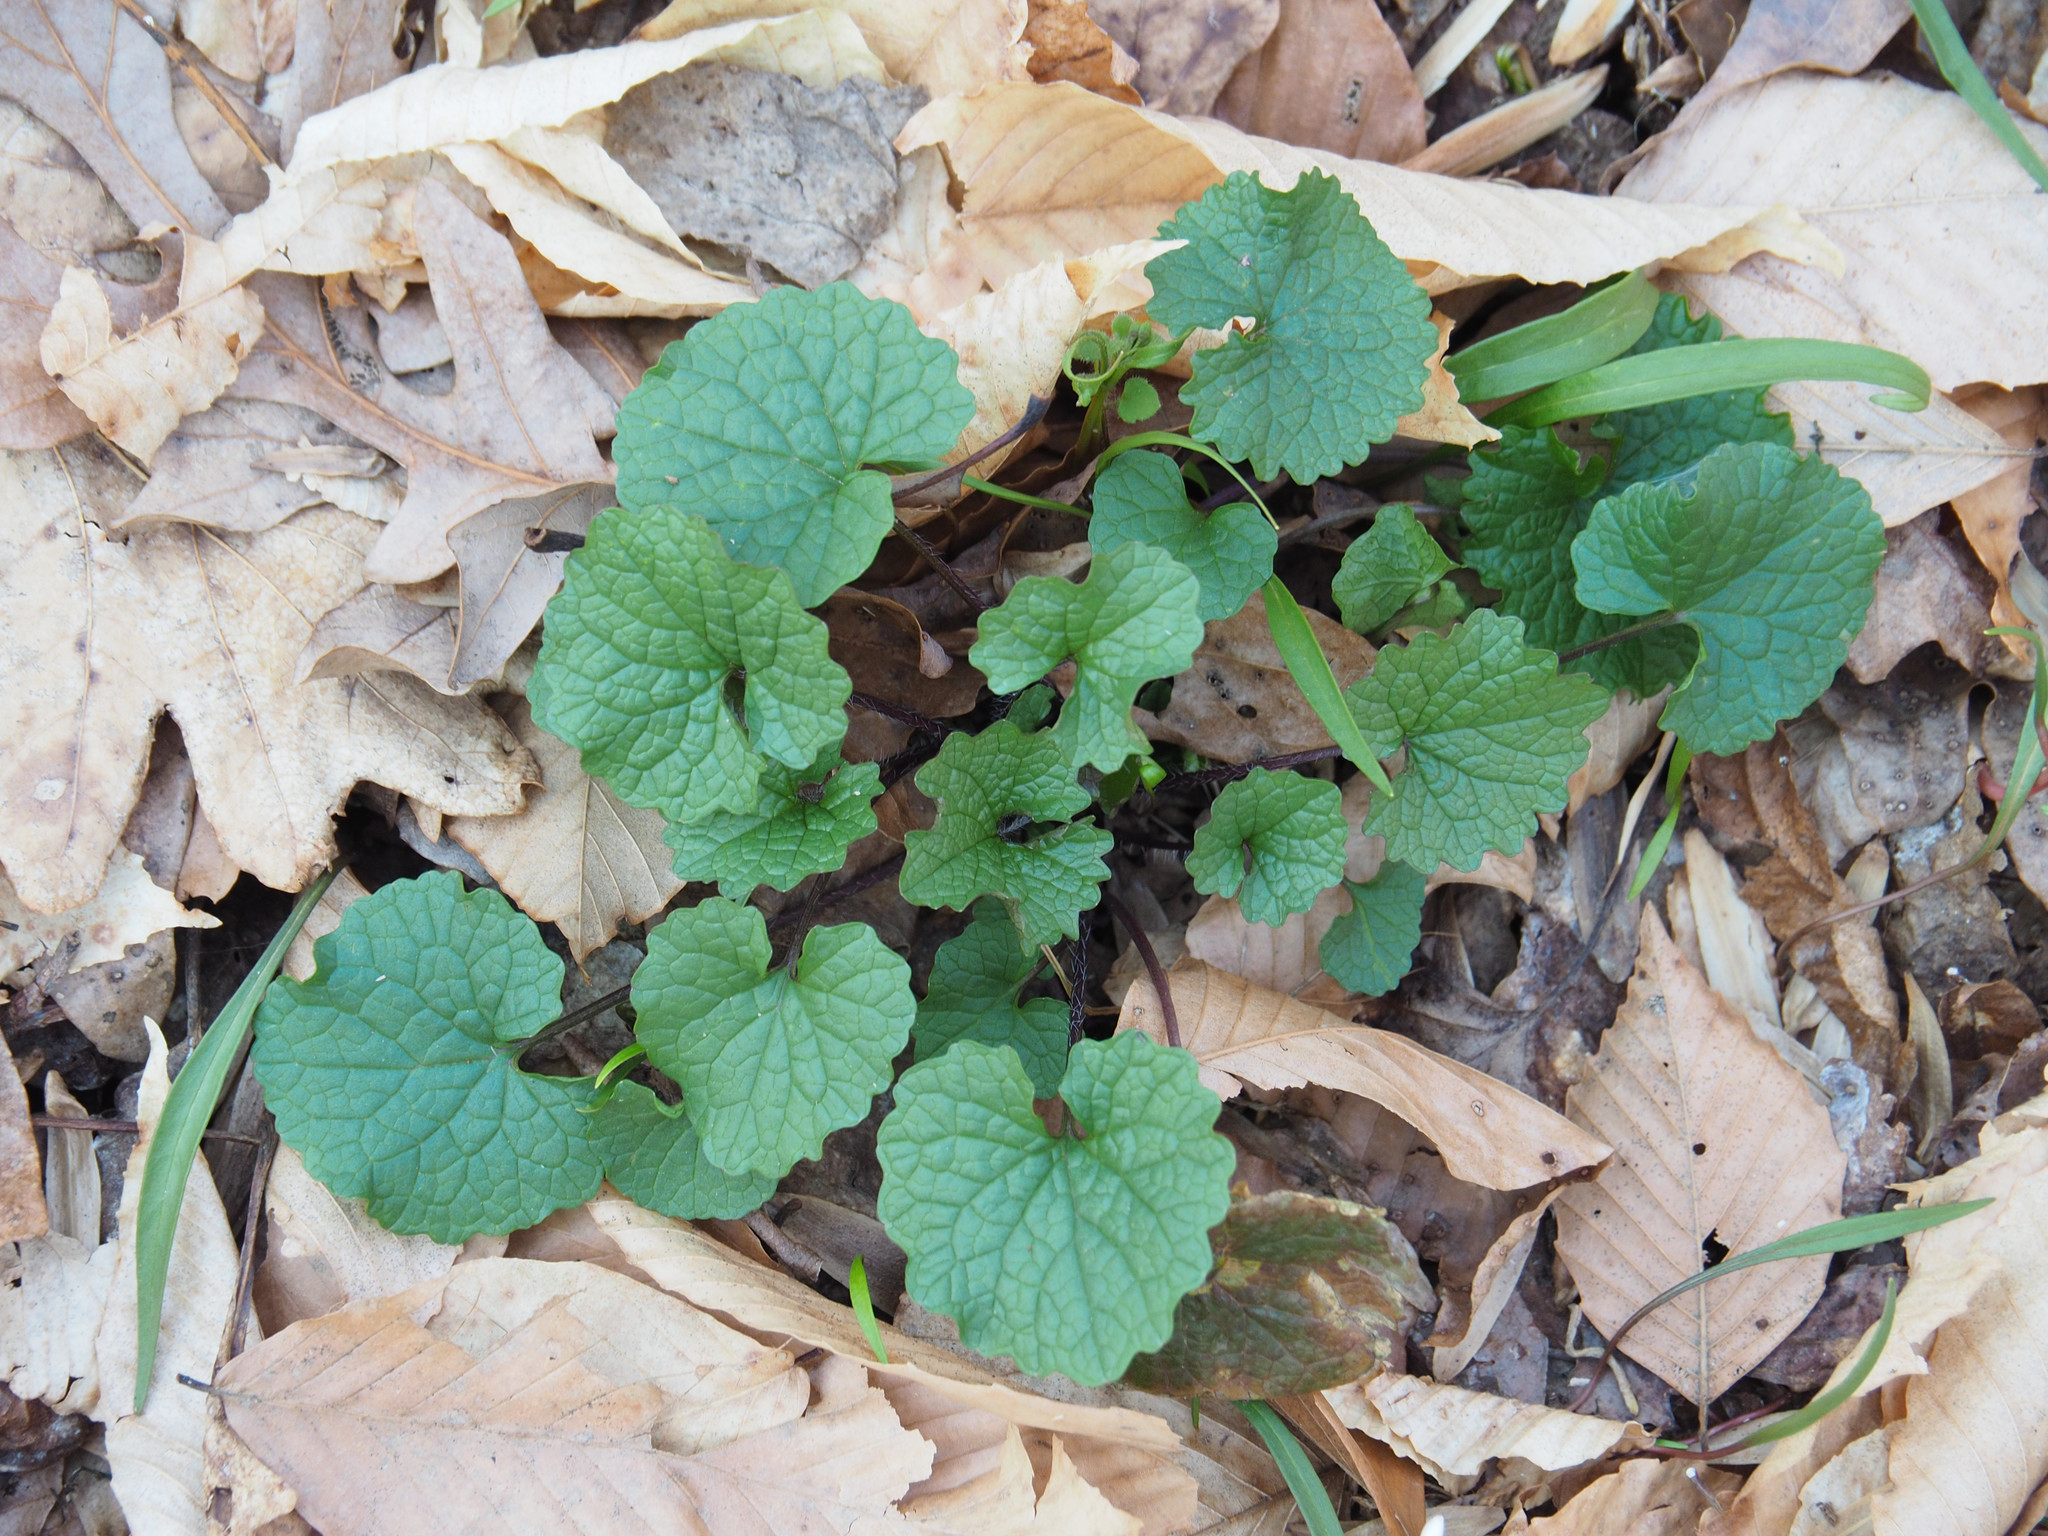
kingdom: Plantae
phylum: Tracheophyta
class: Magnoliopsida
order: Brassicales
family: Brassicaceae
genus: Alliaria
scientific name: Alliaria petiolata
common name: Garlic mustard
